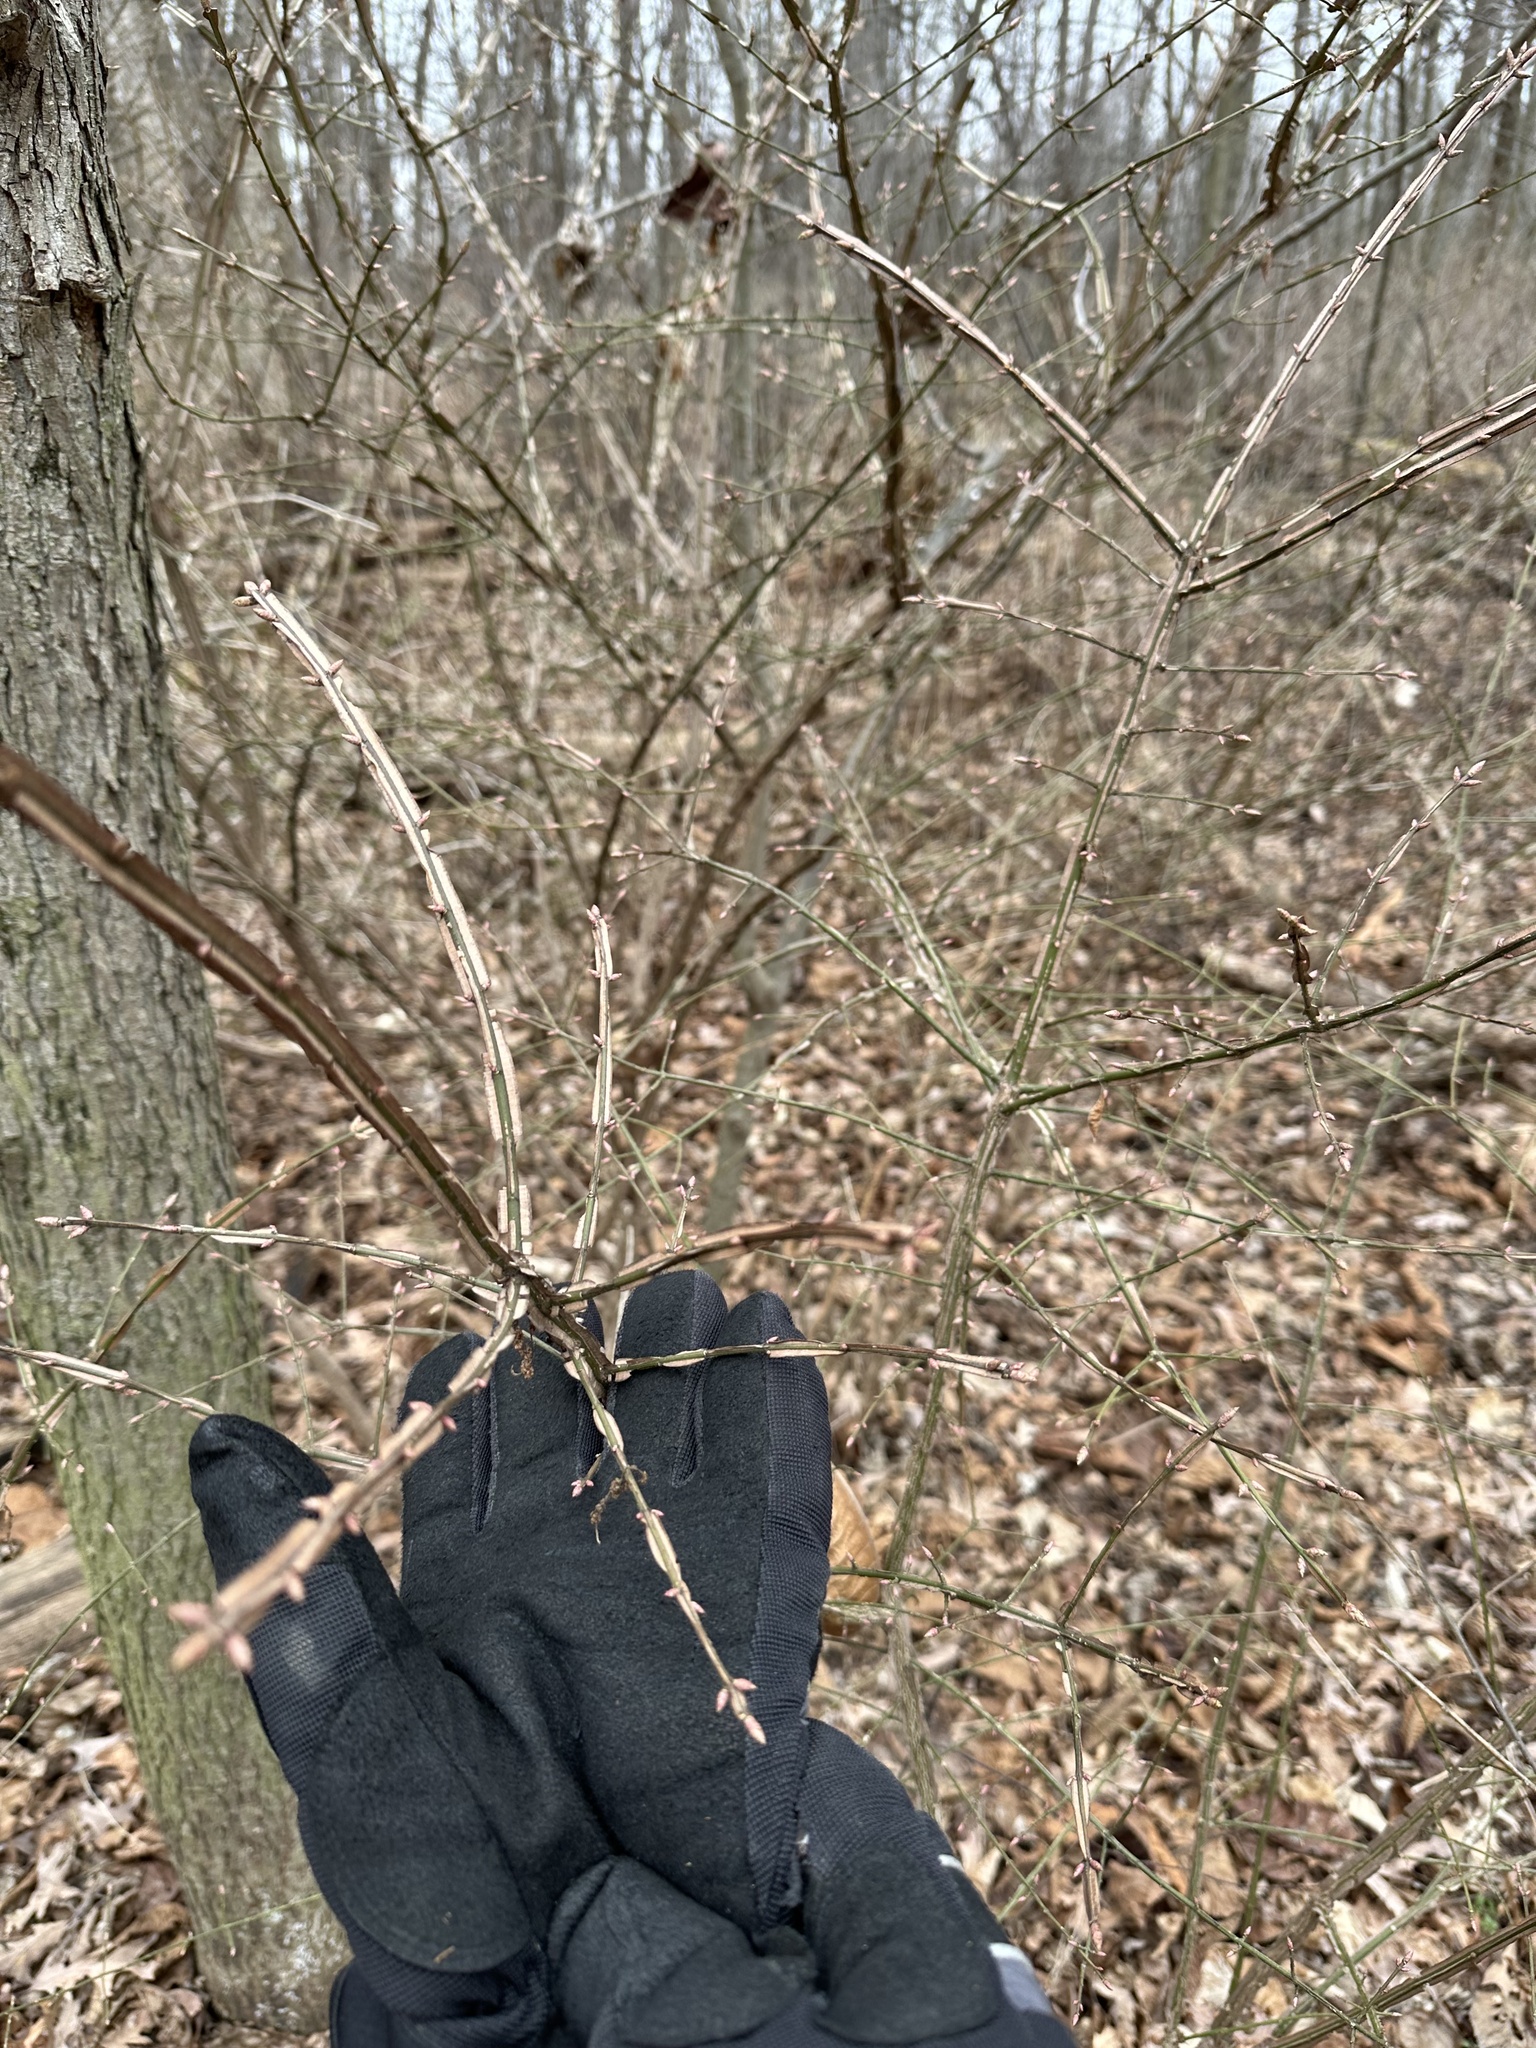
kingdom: Plantae
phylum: Tracheophyta
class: Magnoliopsida
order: Celastrales
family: Celastraceae
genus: Euonymus
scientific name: Euonymus alatus
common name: Winged euonymus
